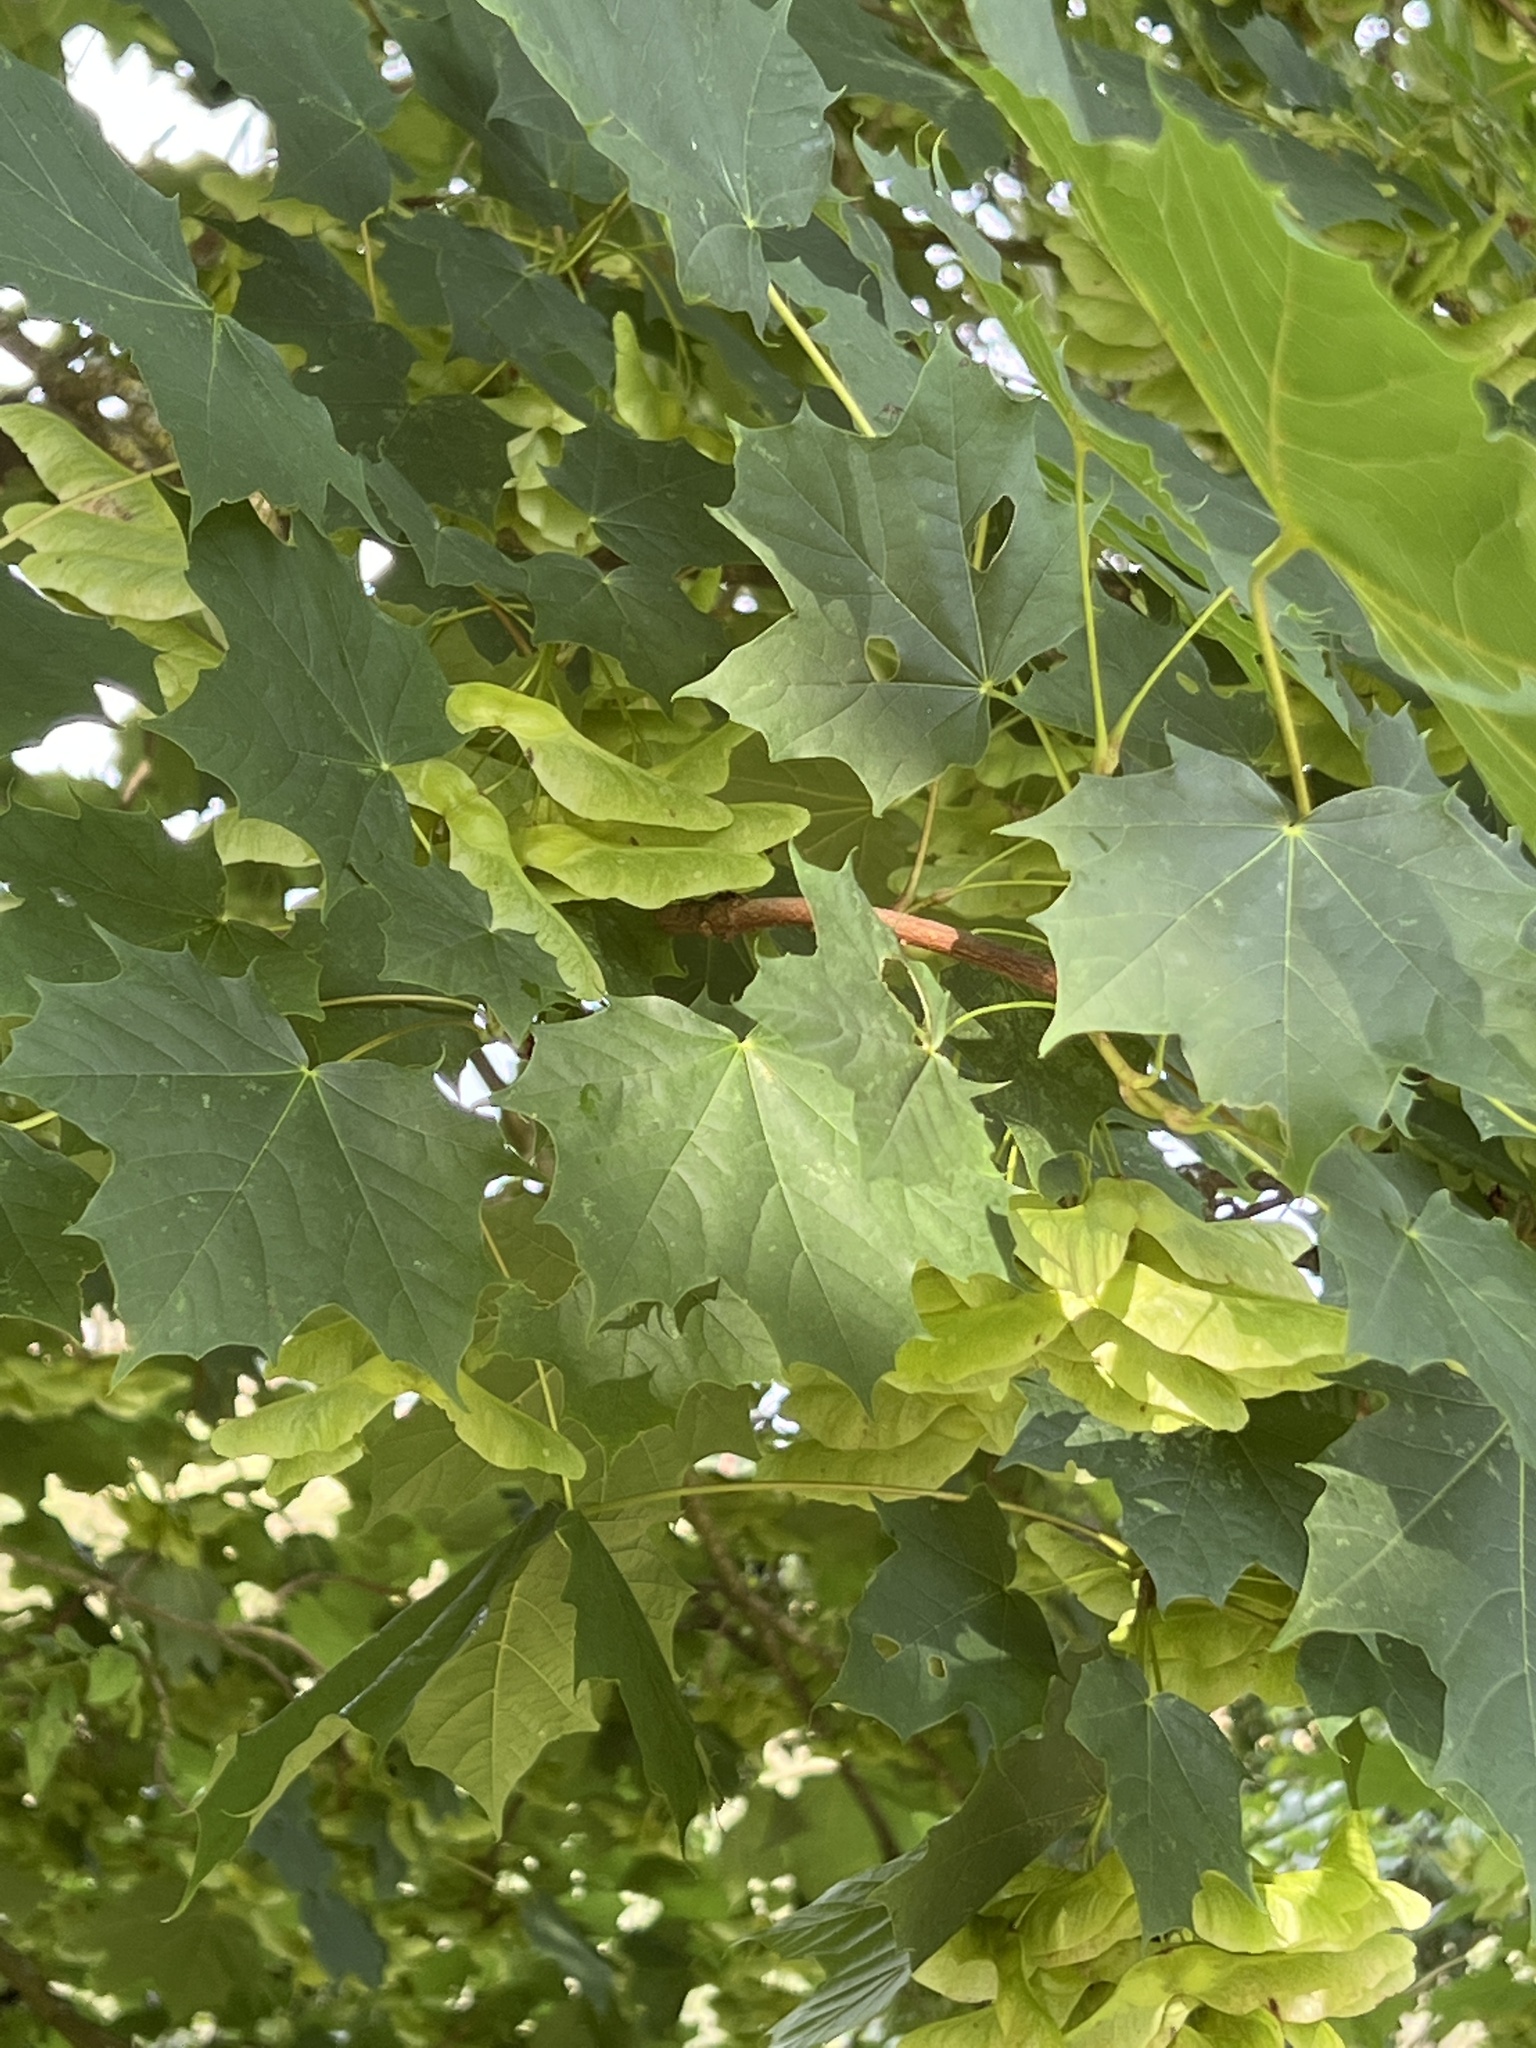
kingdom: Plantae
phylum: Tracheophyta
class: Magnoliopsida
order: Sapindales
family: Sapindaceae
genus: Acer
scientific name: Acer platanoides
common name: Norway maple
